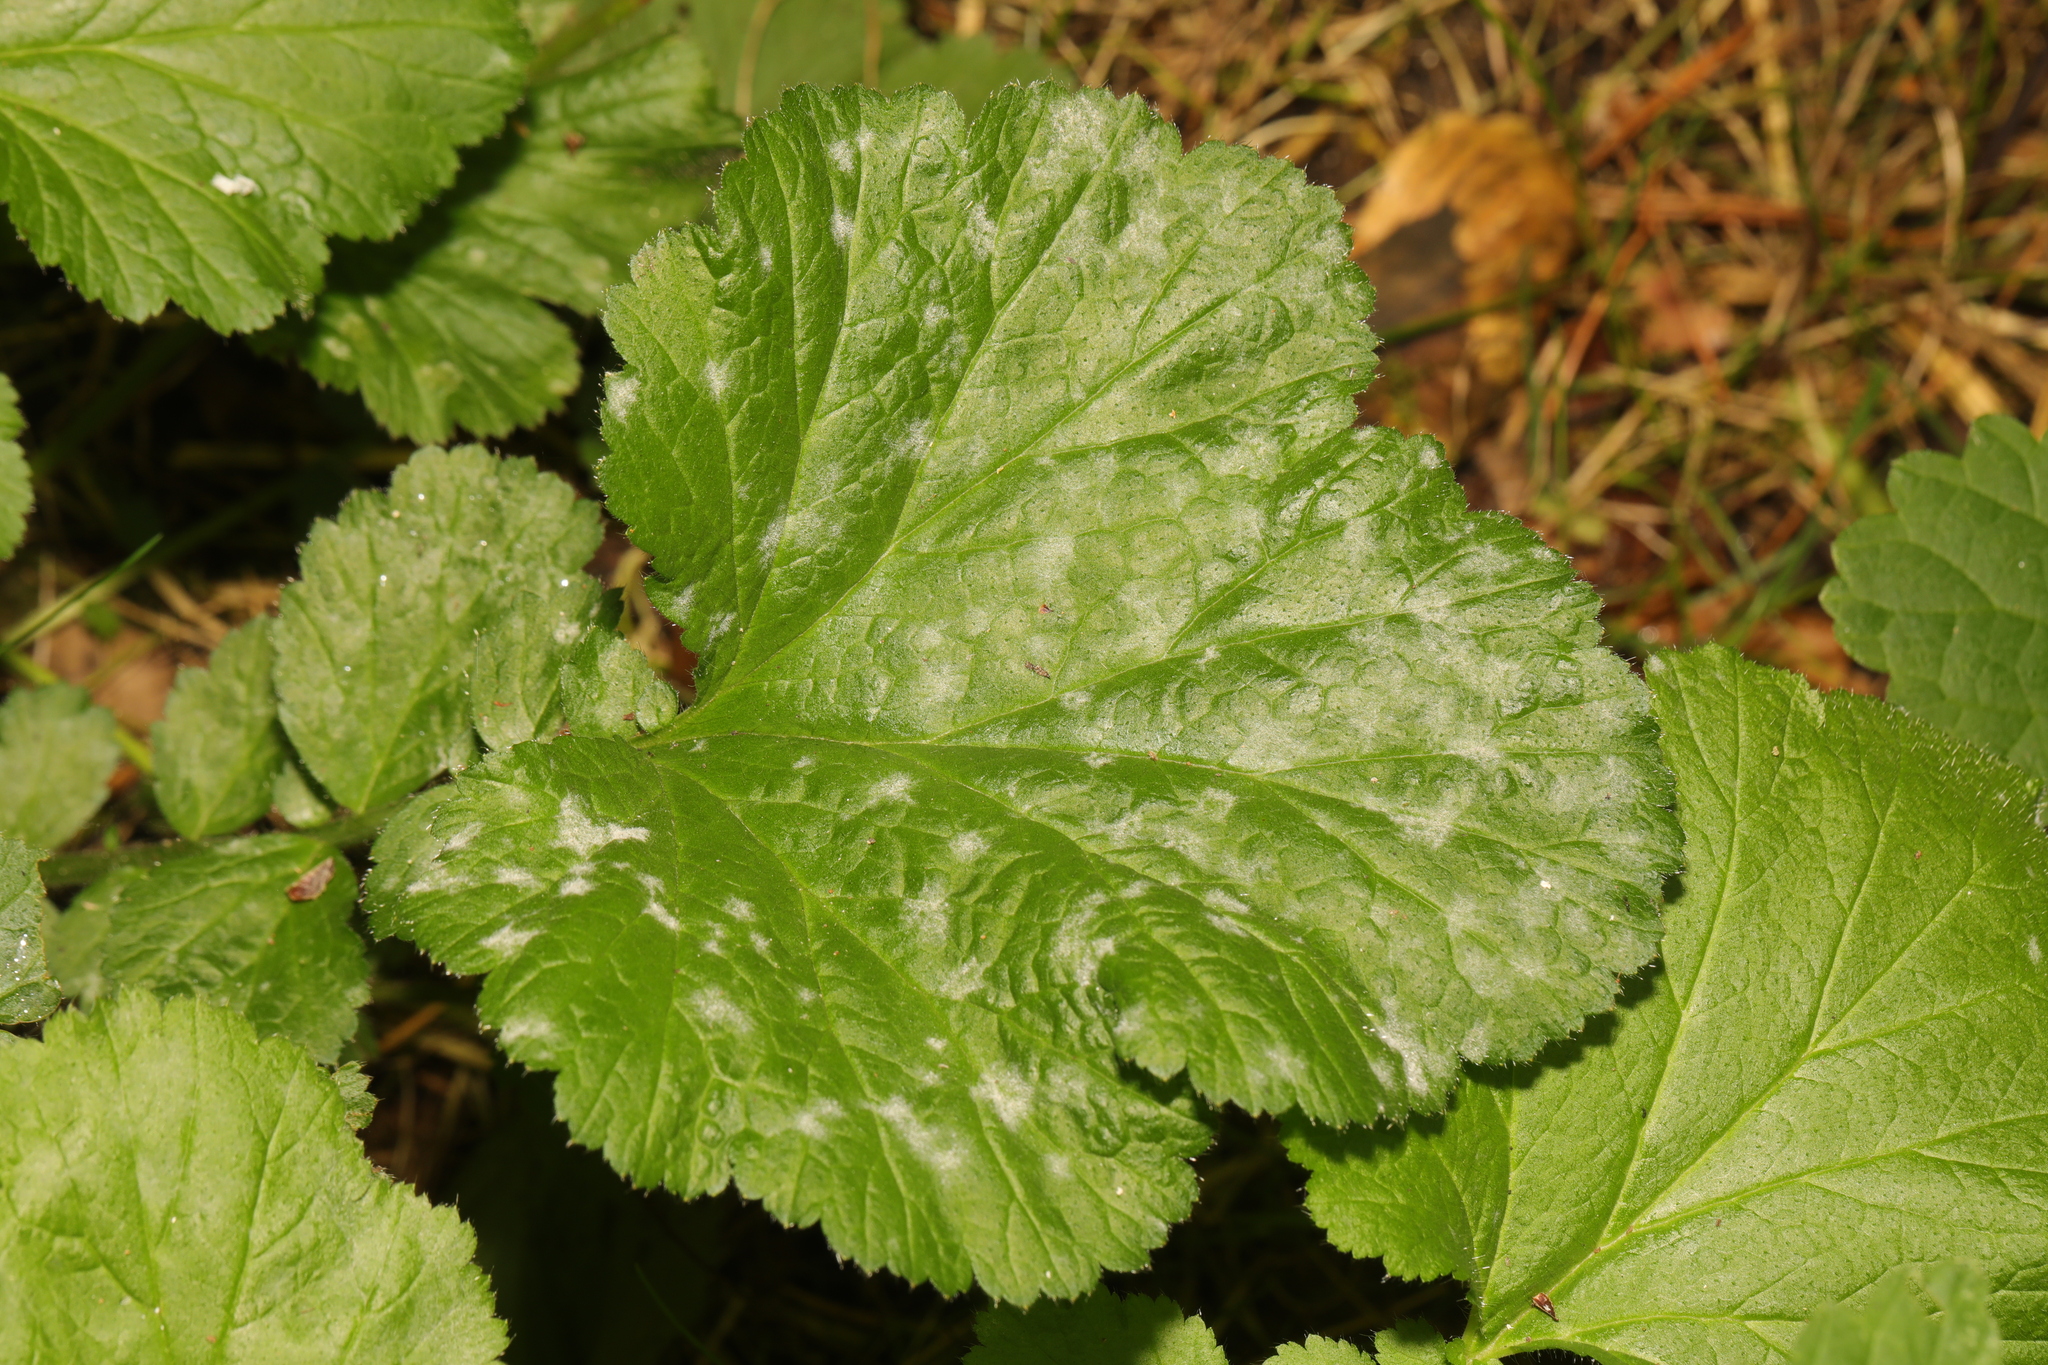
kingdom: Fungi
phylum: Ascomycota
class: Leotiomycetes
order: Helotiales
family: Erysiphaceae
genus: Podosphaera
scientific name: Podosphaera aphanis
